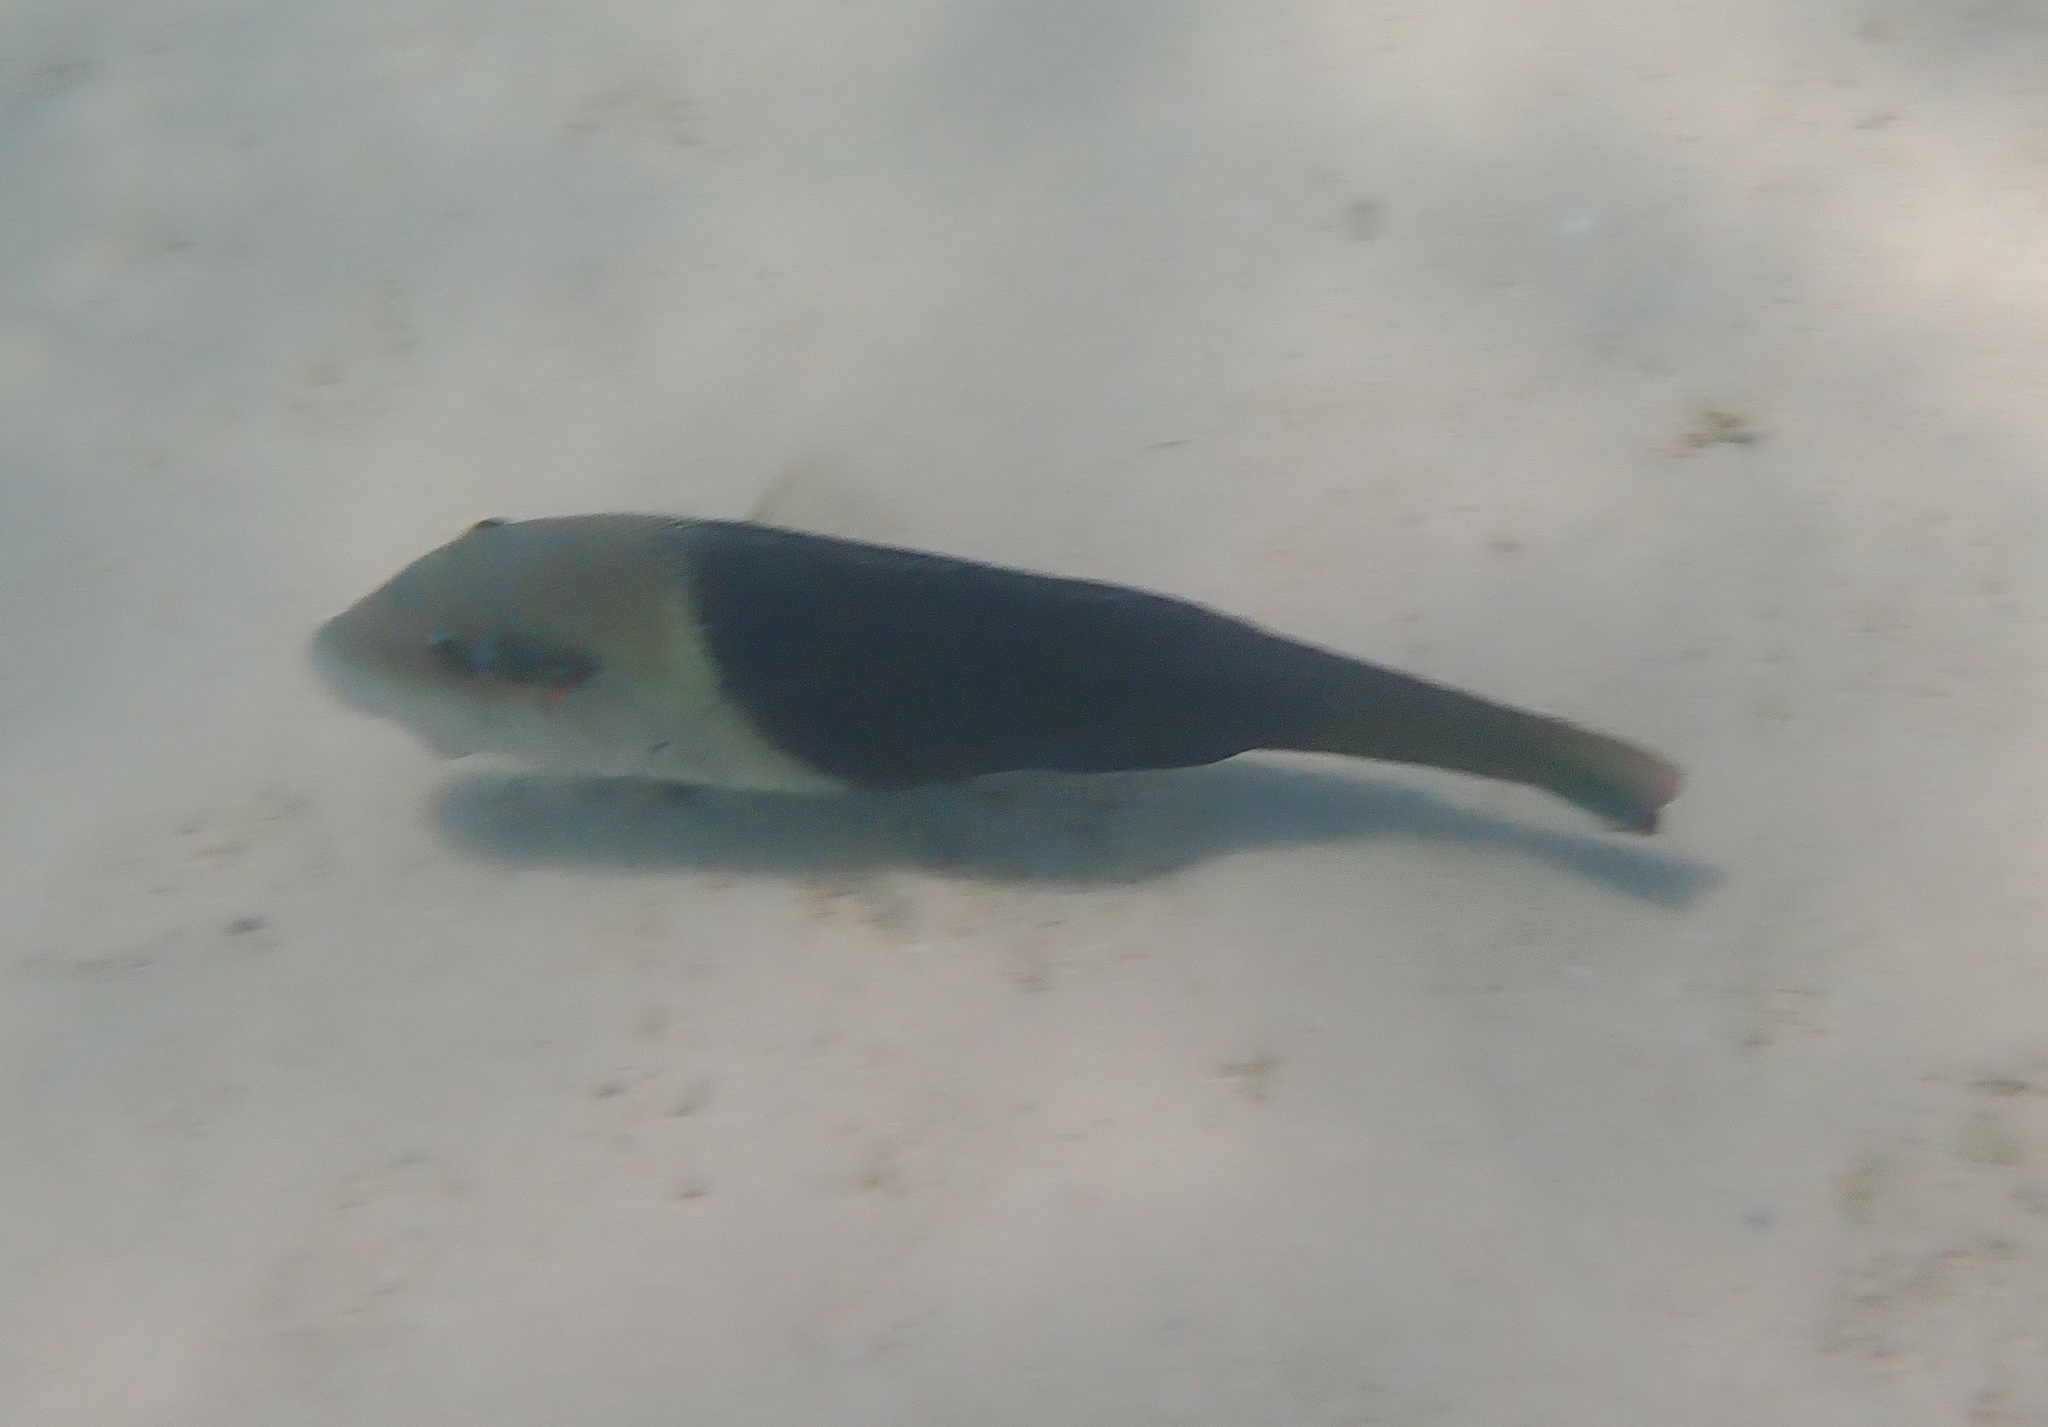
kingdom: Animalia
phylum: Chordata
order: Perciformes
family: Labridae
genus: Hemigymnus
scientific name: Hemigymnus melapterus
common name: Blackeye thicklip
